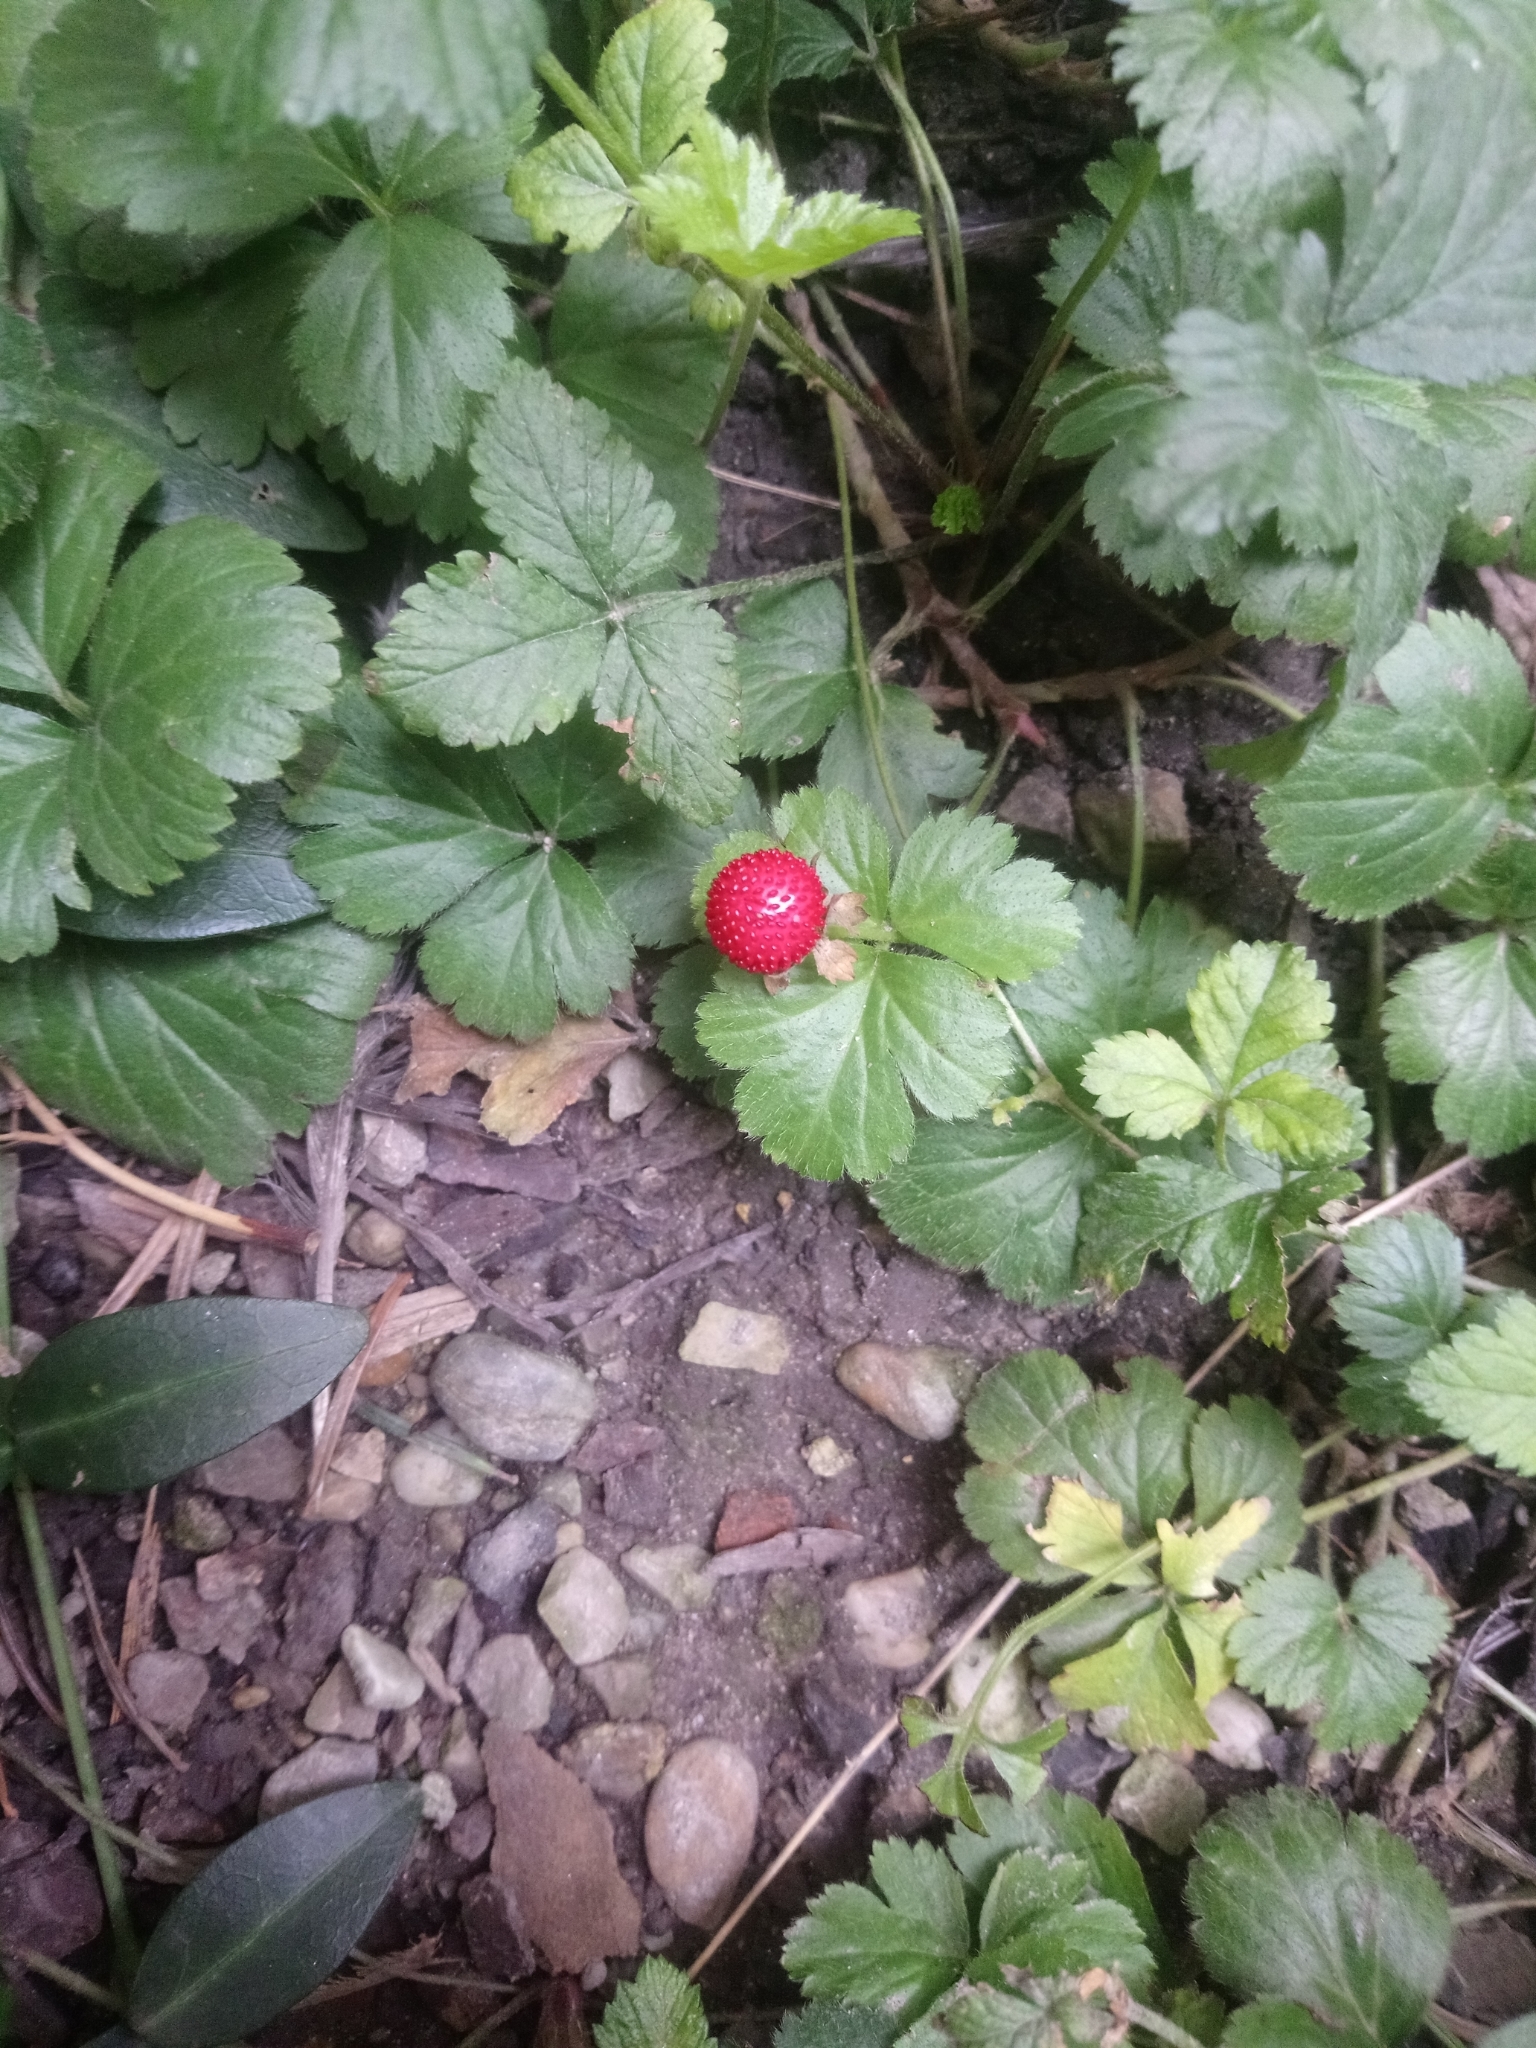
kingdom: Plantae
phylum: Tracheophyta
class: Magnoliopsida
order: Rosales
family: Rosaceae
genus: Potentilla
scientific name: Potentilla indica
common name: Yellow-flowered strawberry
